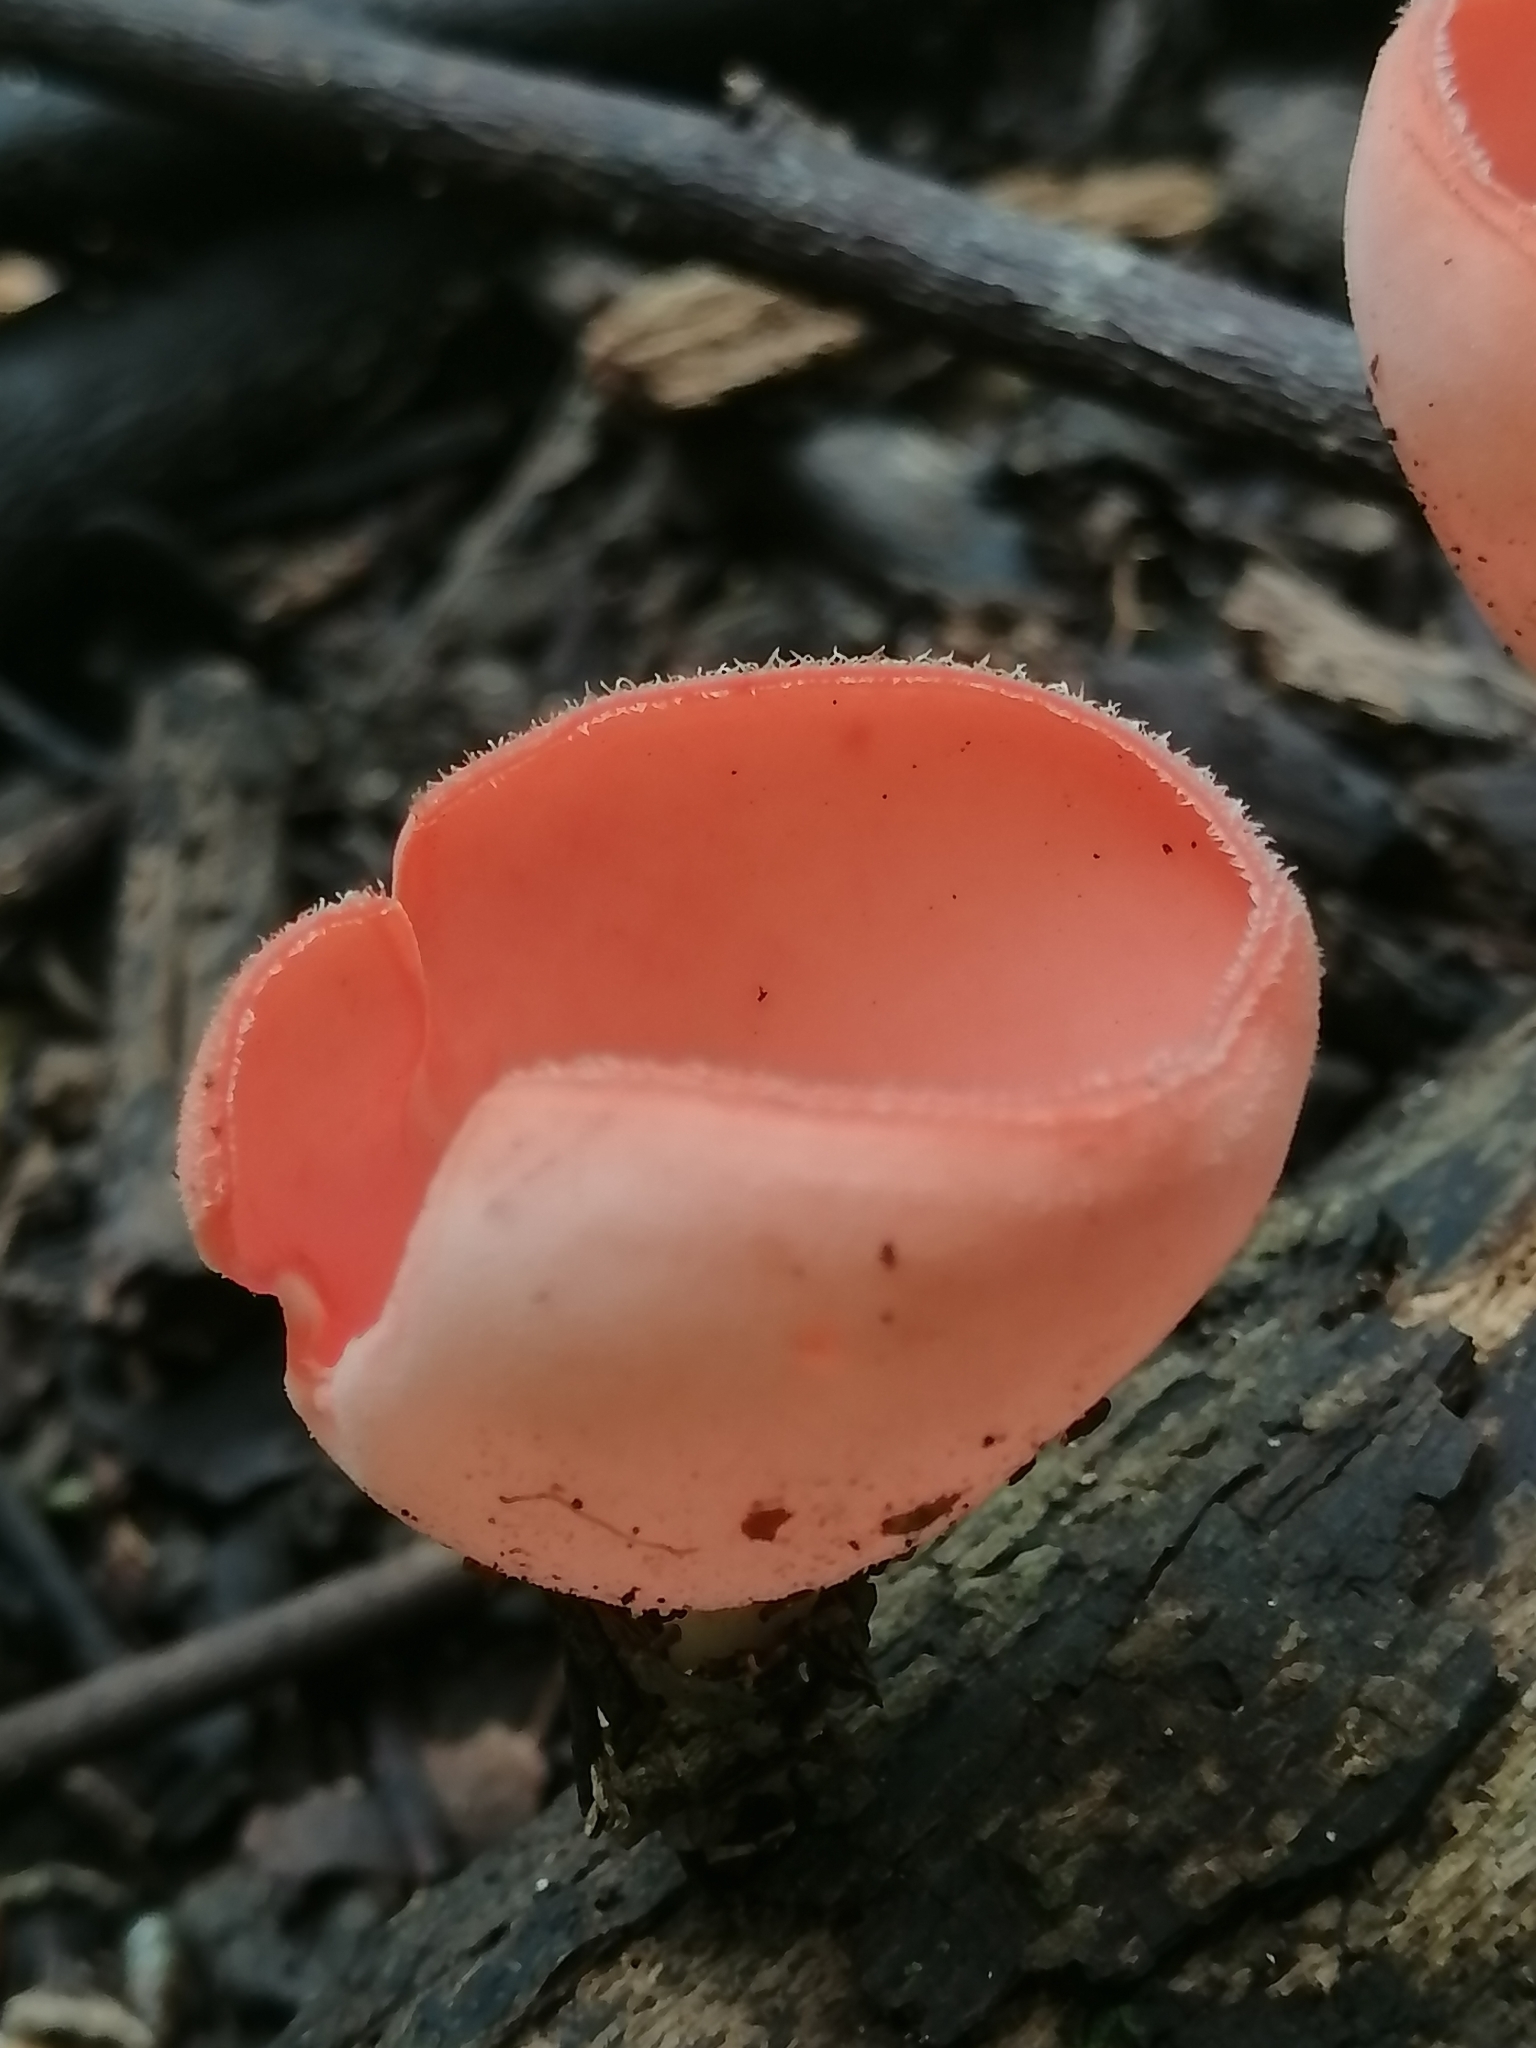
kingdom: Fungi
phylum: Ascomycota
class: Pezizomycetes
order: Pezizales
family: Sarcoscyphaceae
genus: Cookeina
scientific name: Cookeina speciosa
